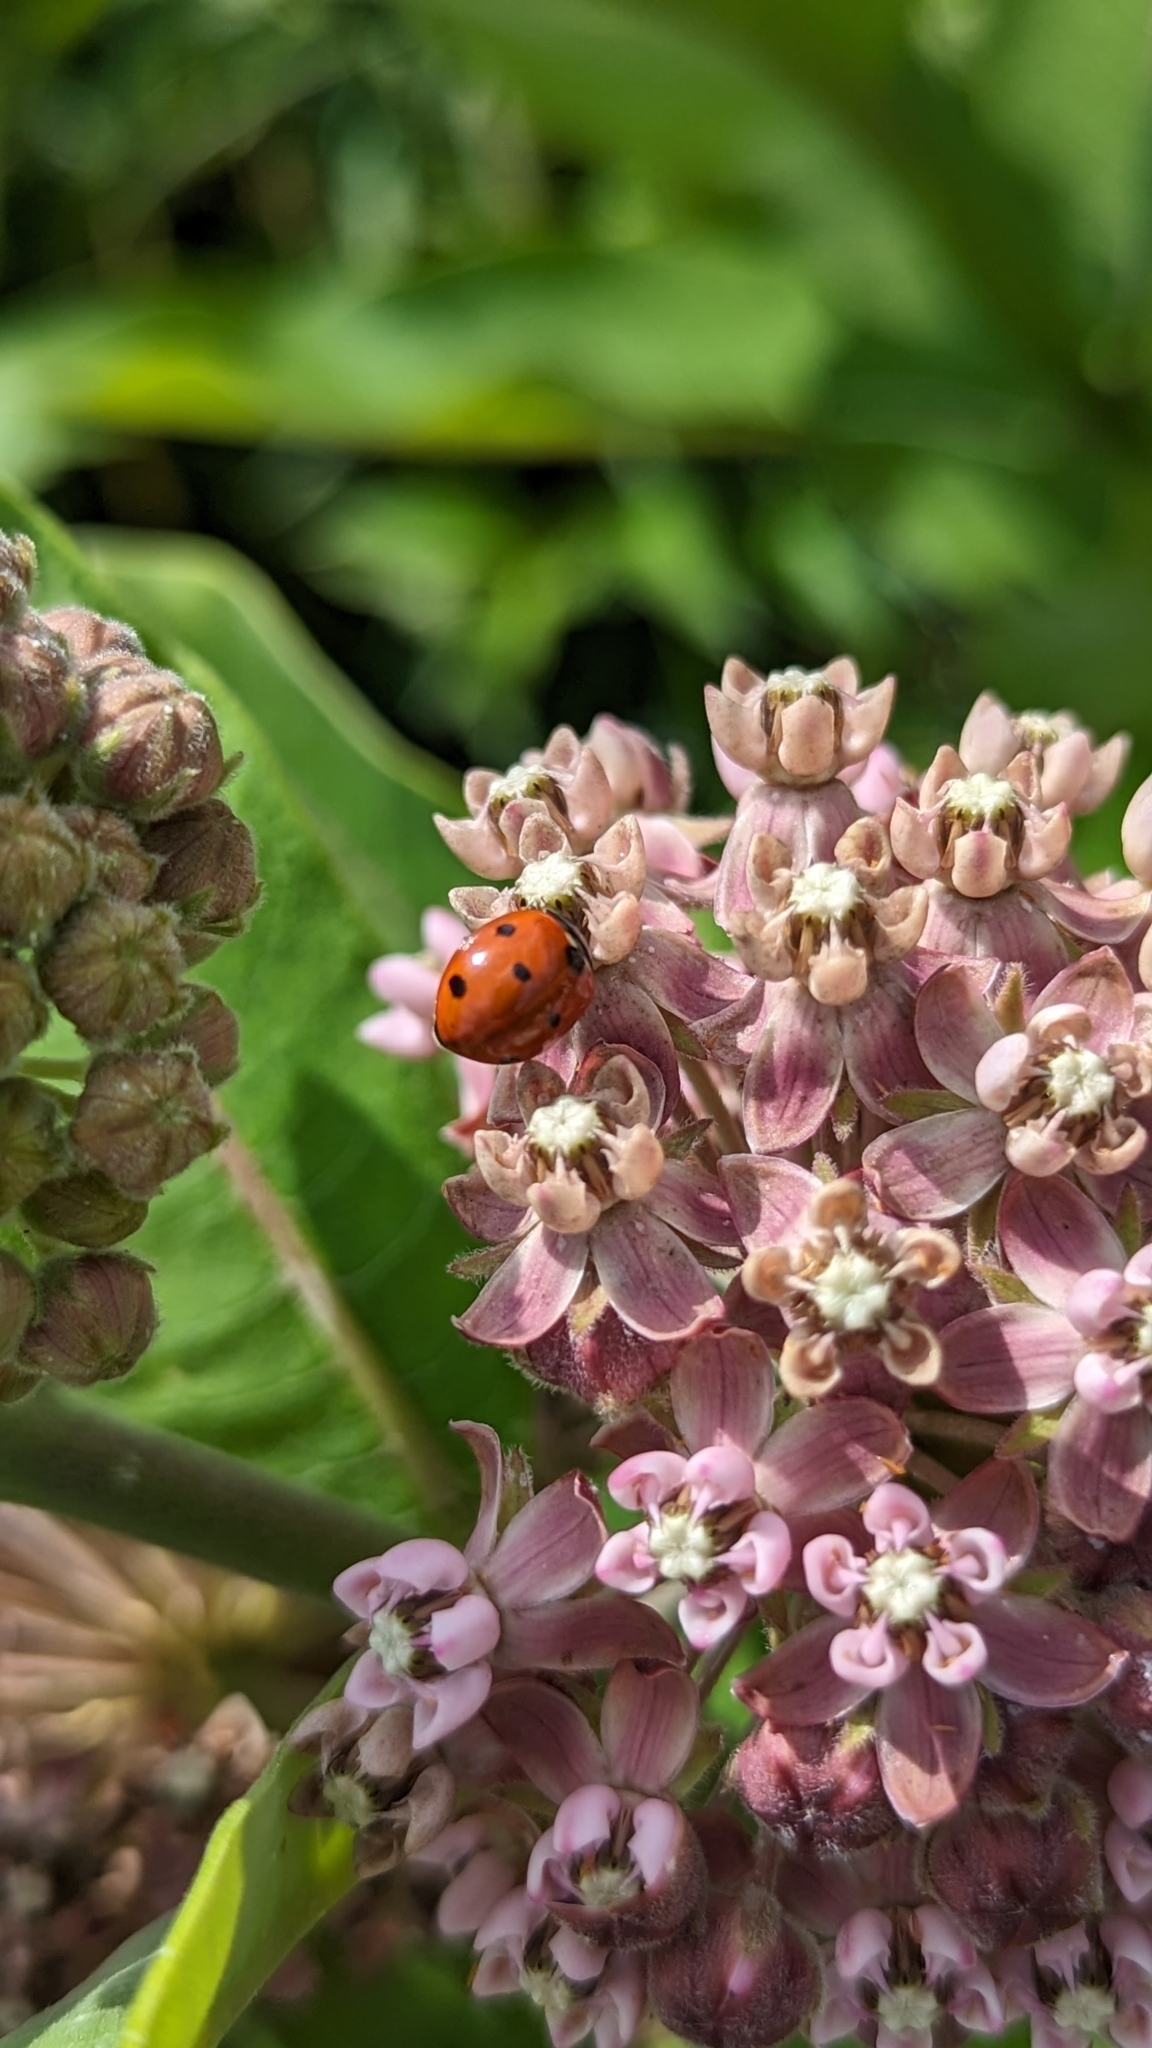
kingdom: Animalia
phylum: Arthropoda
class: Insecta
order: Coleoptera
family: Coccinellidae
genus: Coccinella
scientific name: Coccinella septempunctata
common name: Sevenspotted lady beetle
